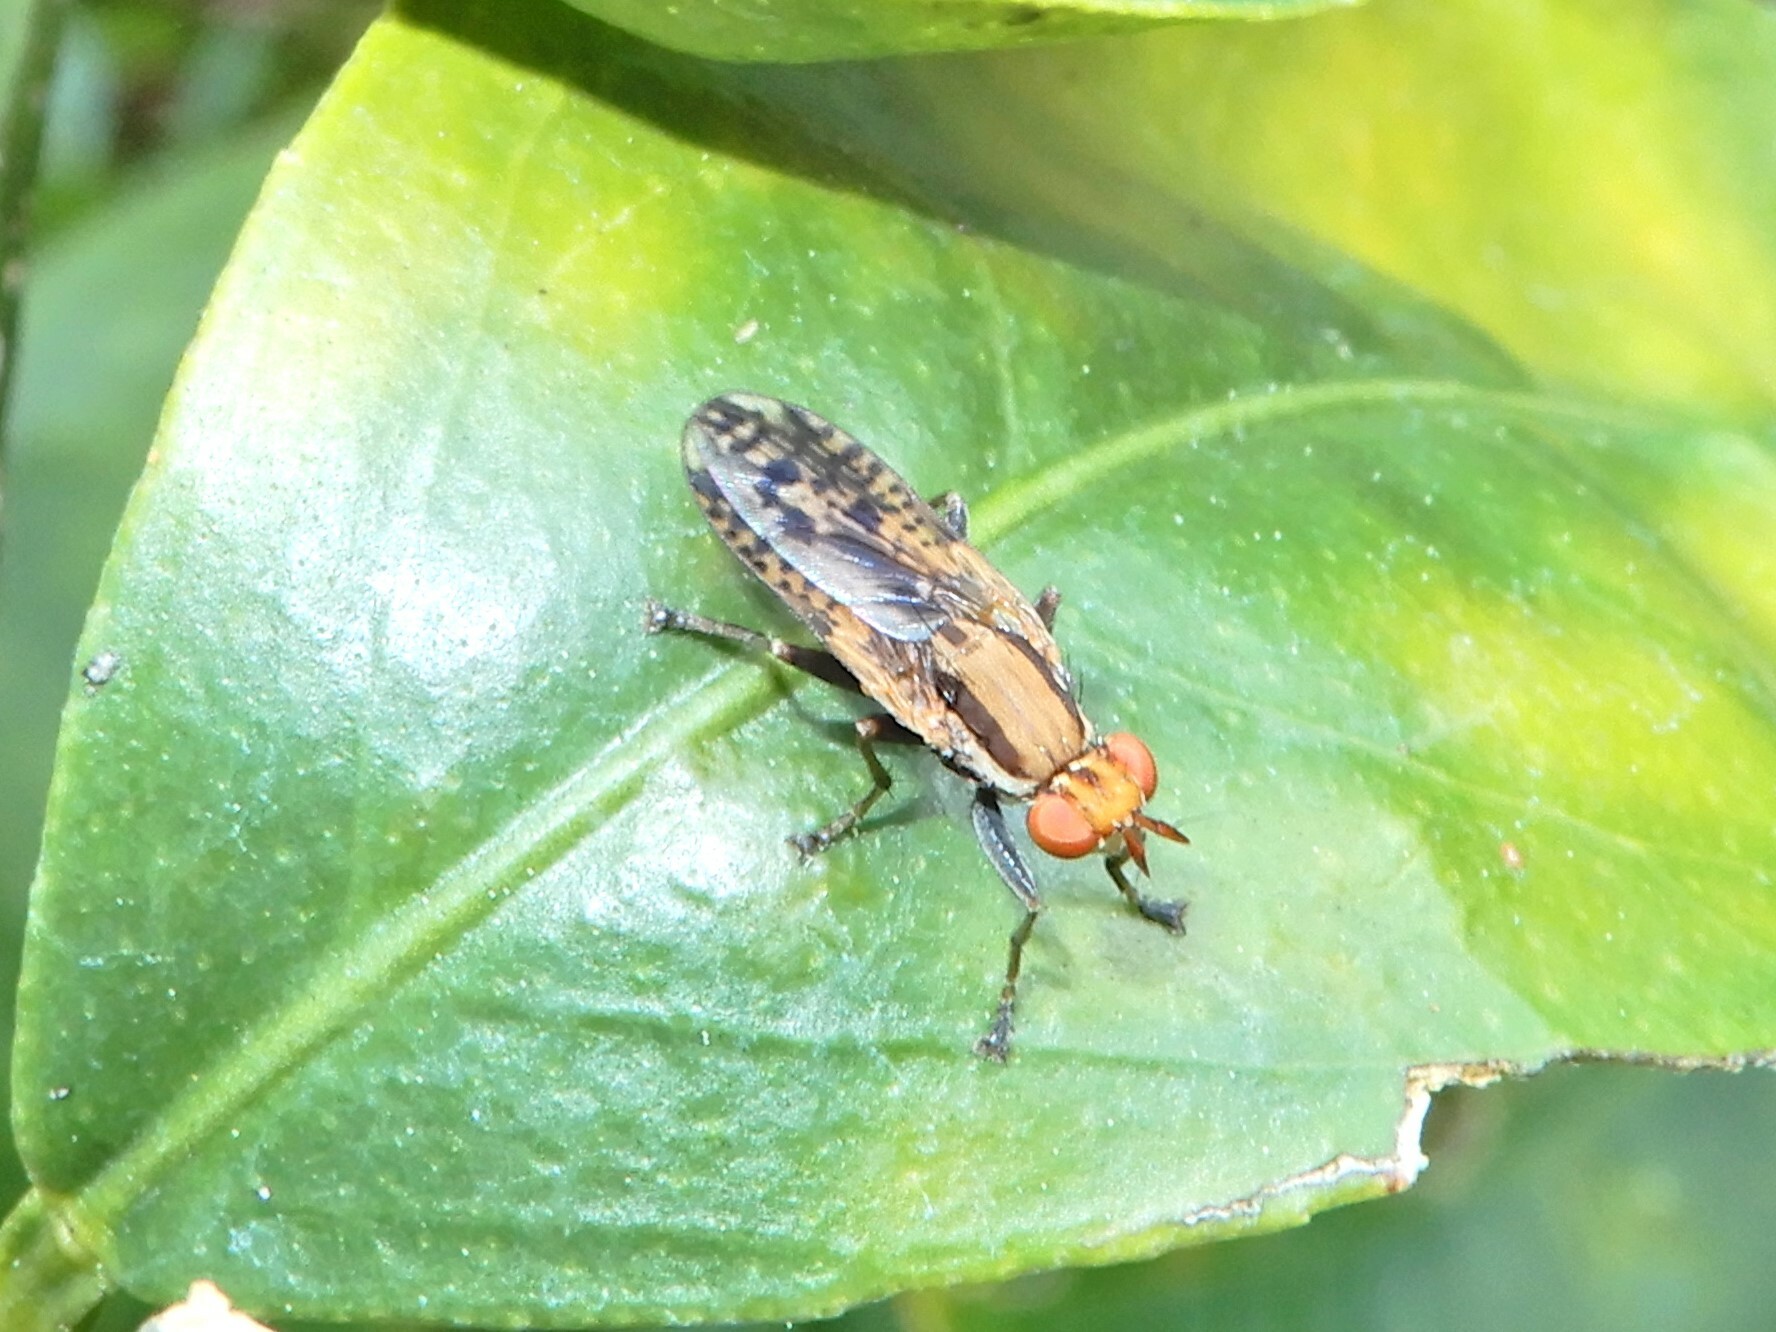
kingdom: Animalia
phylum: Arthropoda
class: Insecta
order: Diptera
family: Sciomyzidae
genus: Neolimnia
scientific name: Neolimnia tranquilla
